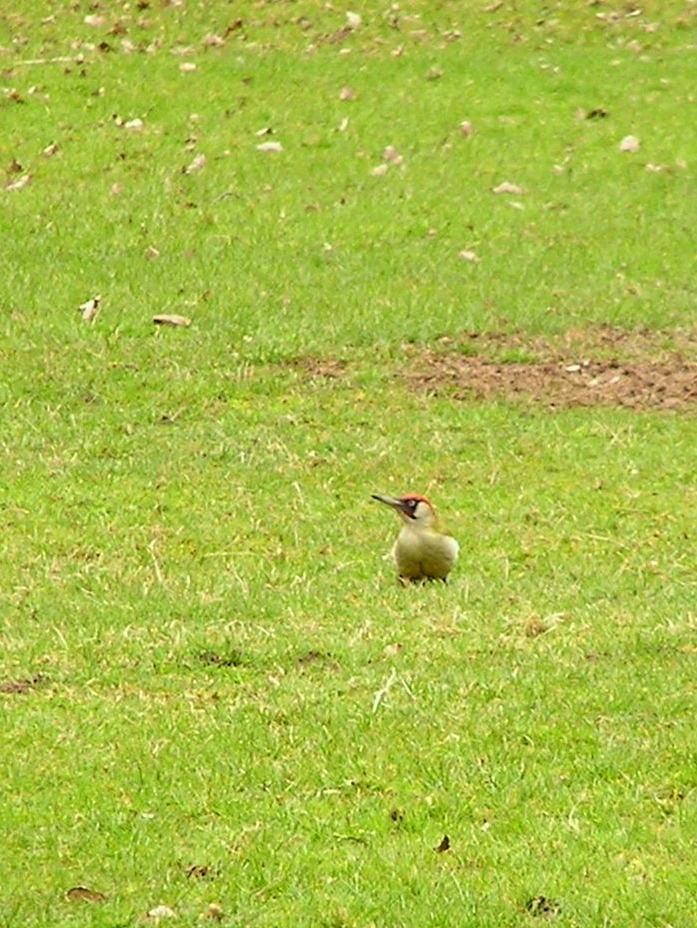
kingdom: Animalia
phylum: Chordata
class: Aves
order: Piciformes
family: Picidae
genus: Picus
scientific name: Picus viridis
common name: European green woodpecker
